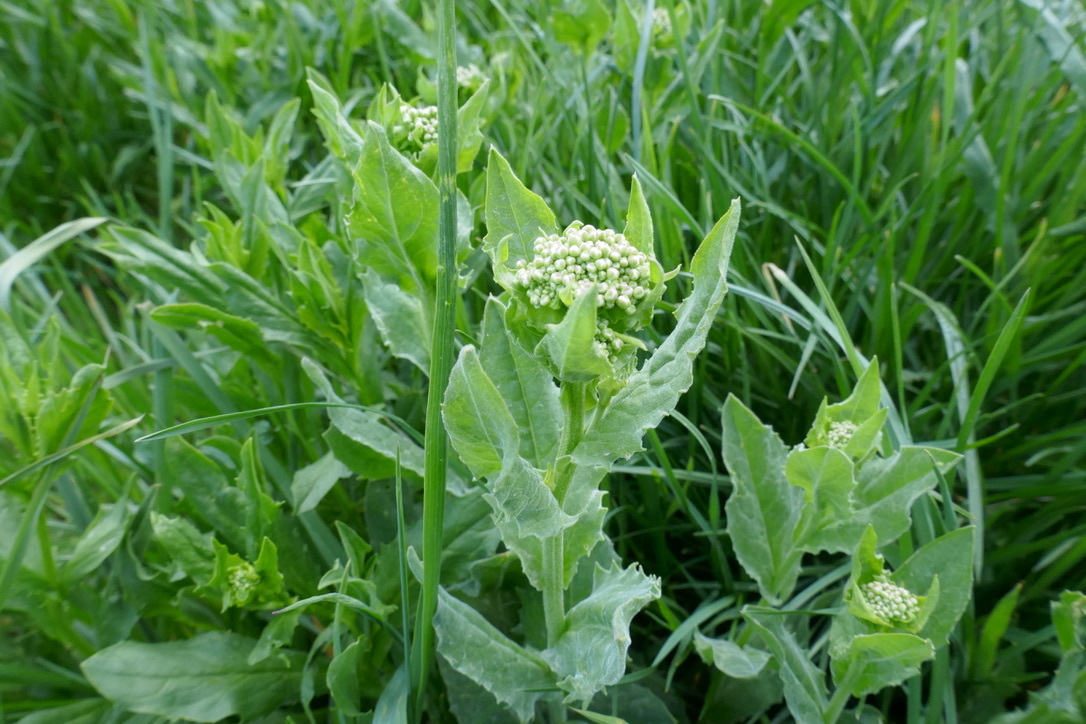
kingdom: Plantae
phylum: Tracheophyta
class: Magnoliopsida
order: Brassicales
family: Brassicaceae
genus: Lepidium
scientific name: Lepidium draba
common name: Hoary cress
